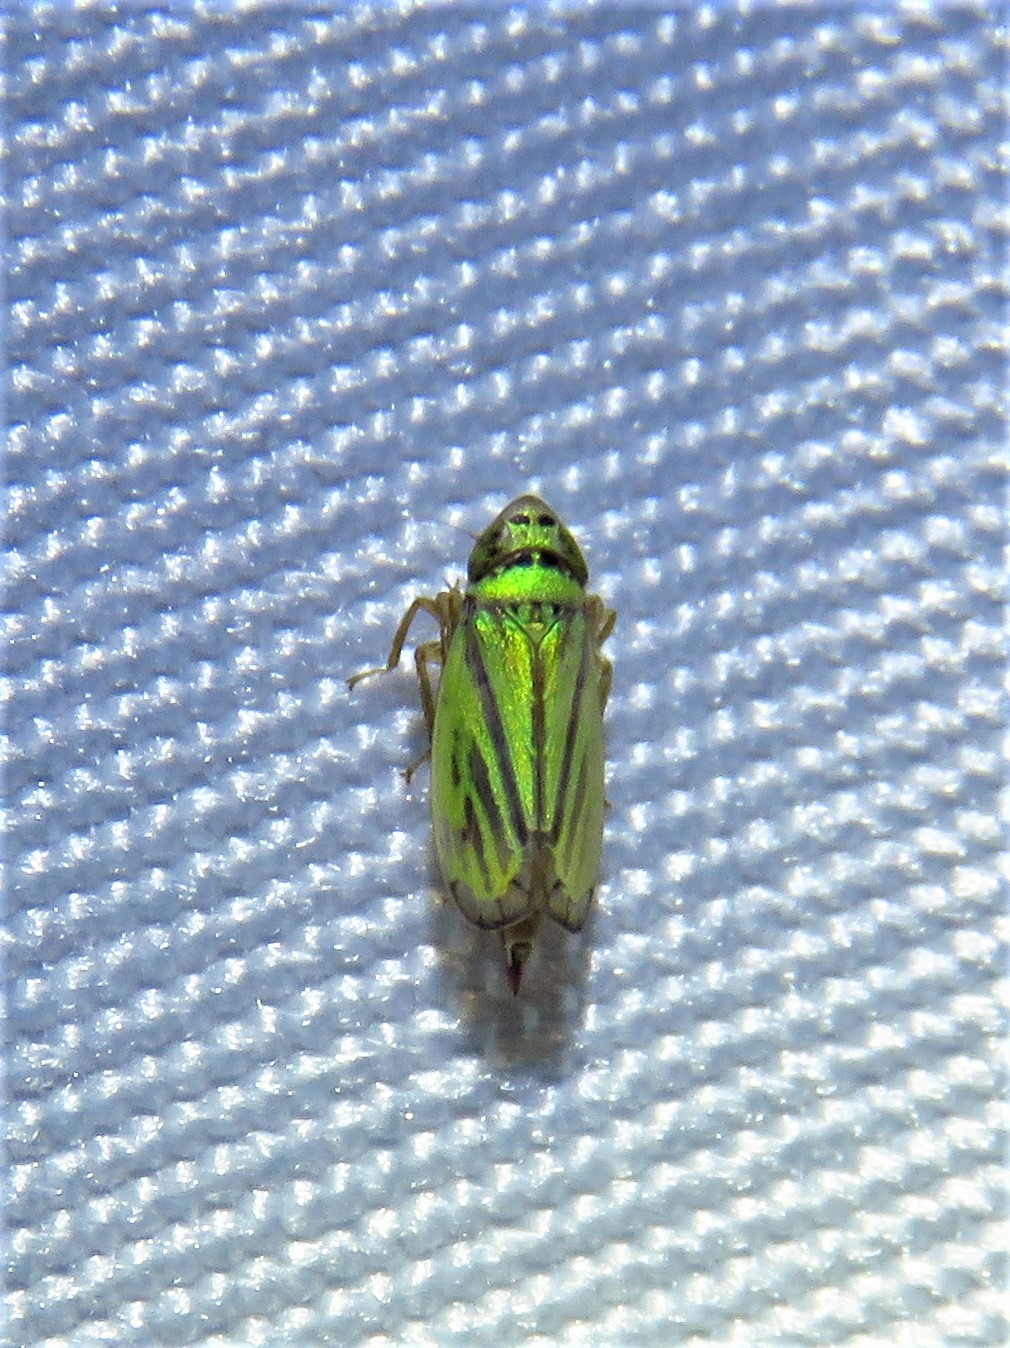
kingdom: Animalia
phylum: Arthropoda
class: Insecta
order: Hemiptera
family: Cicadellidae
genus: Stirellus
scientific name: Stirellus bicolor
